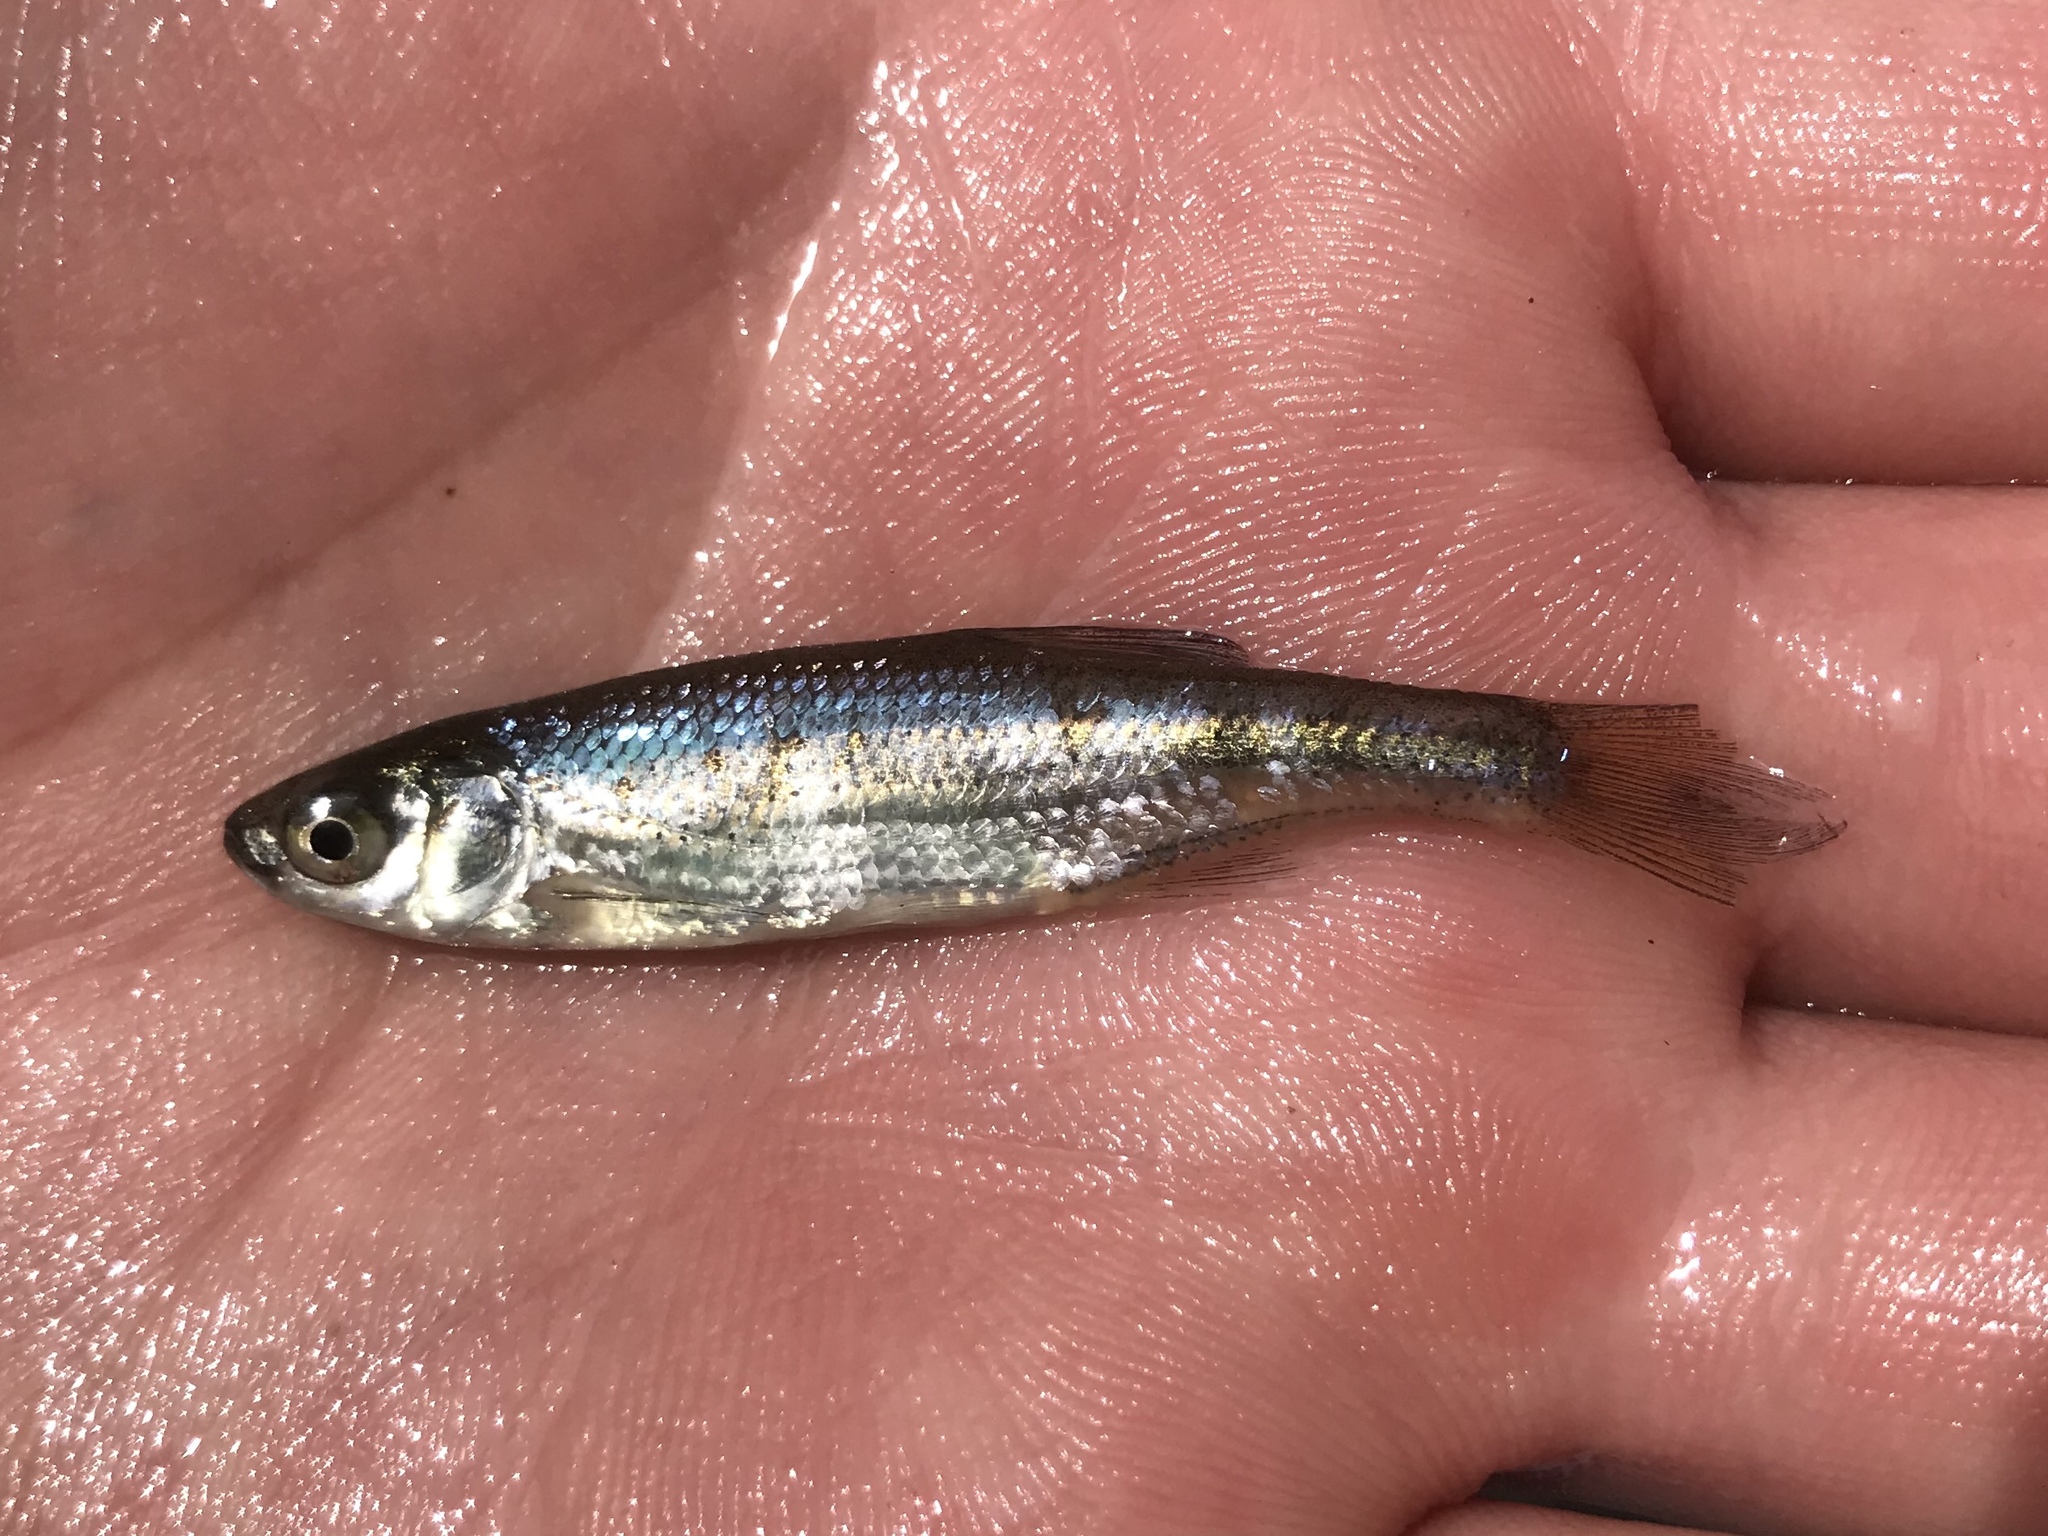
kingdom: Animalia
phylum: Chordata
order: Cypriniformes
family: Cyprinidae
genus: Notemigonus
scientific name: Notemigonus crysoleucas
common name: Golden shiner
